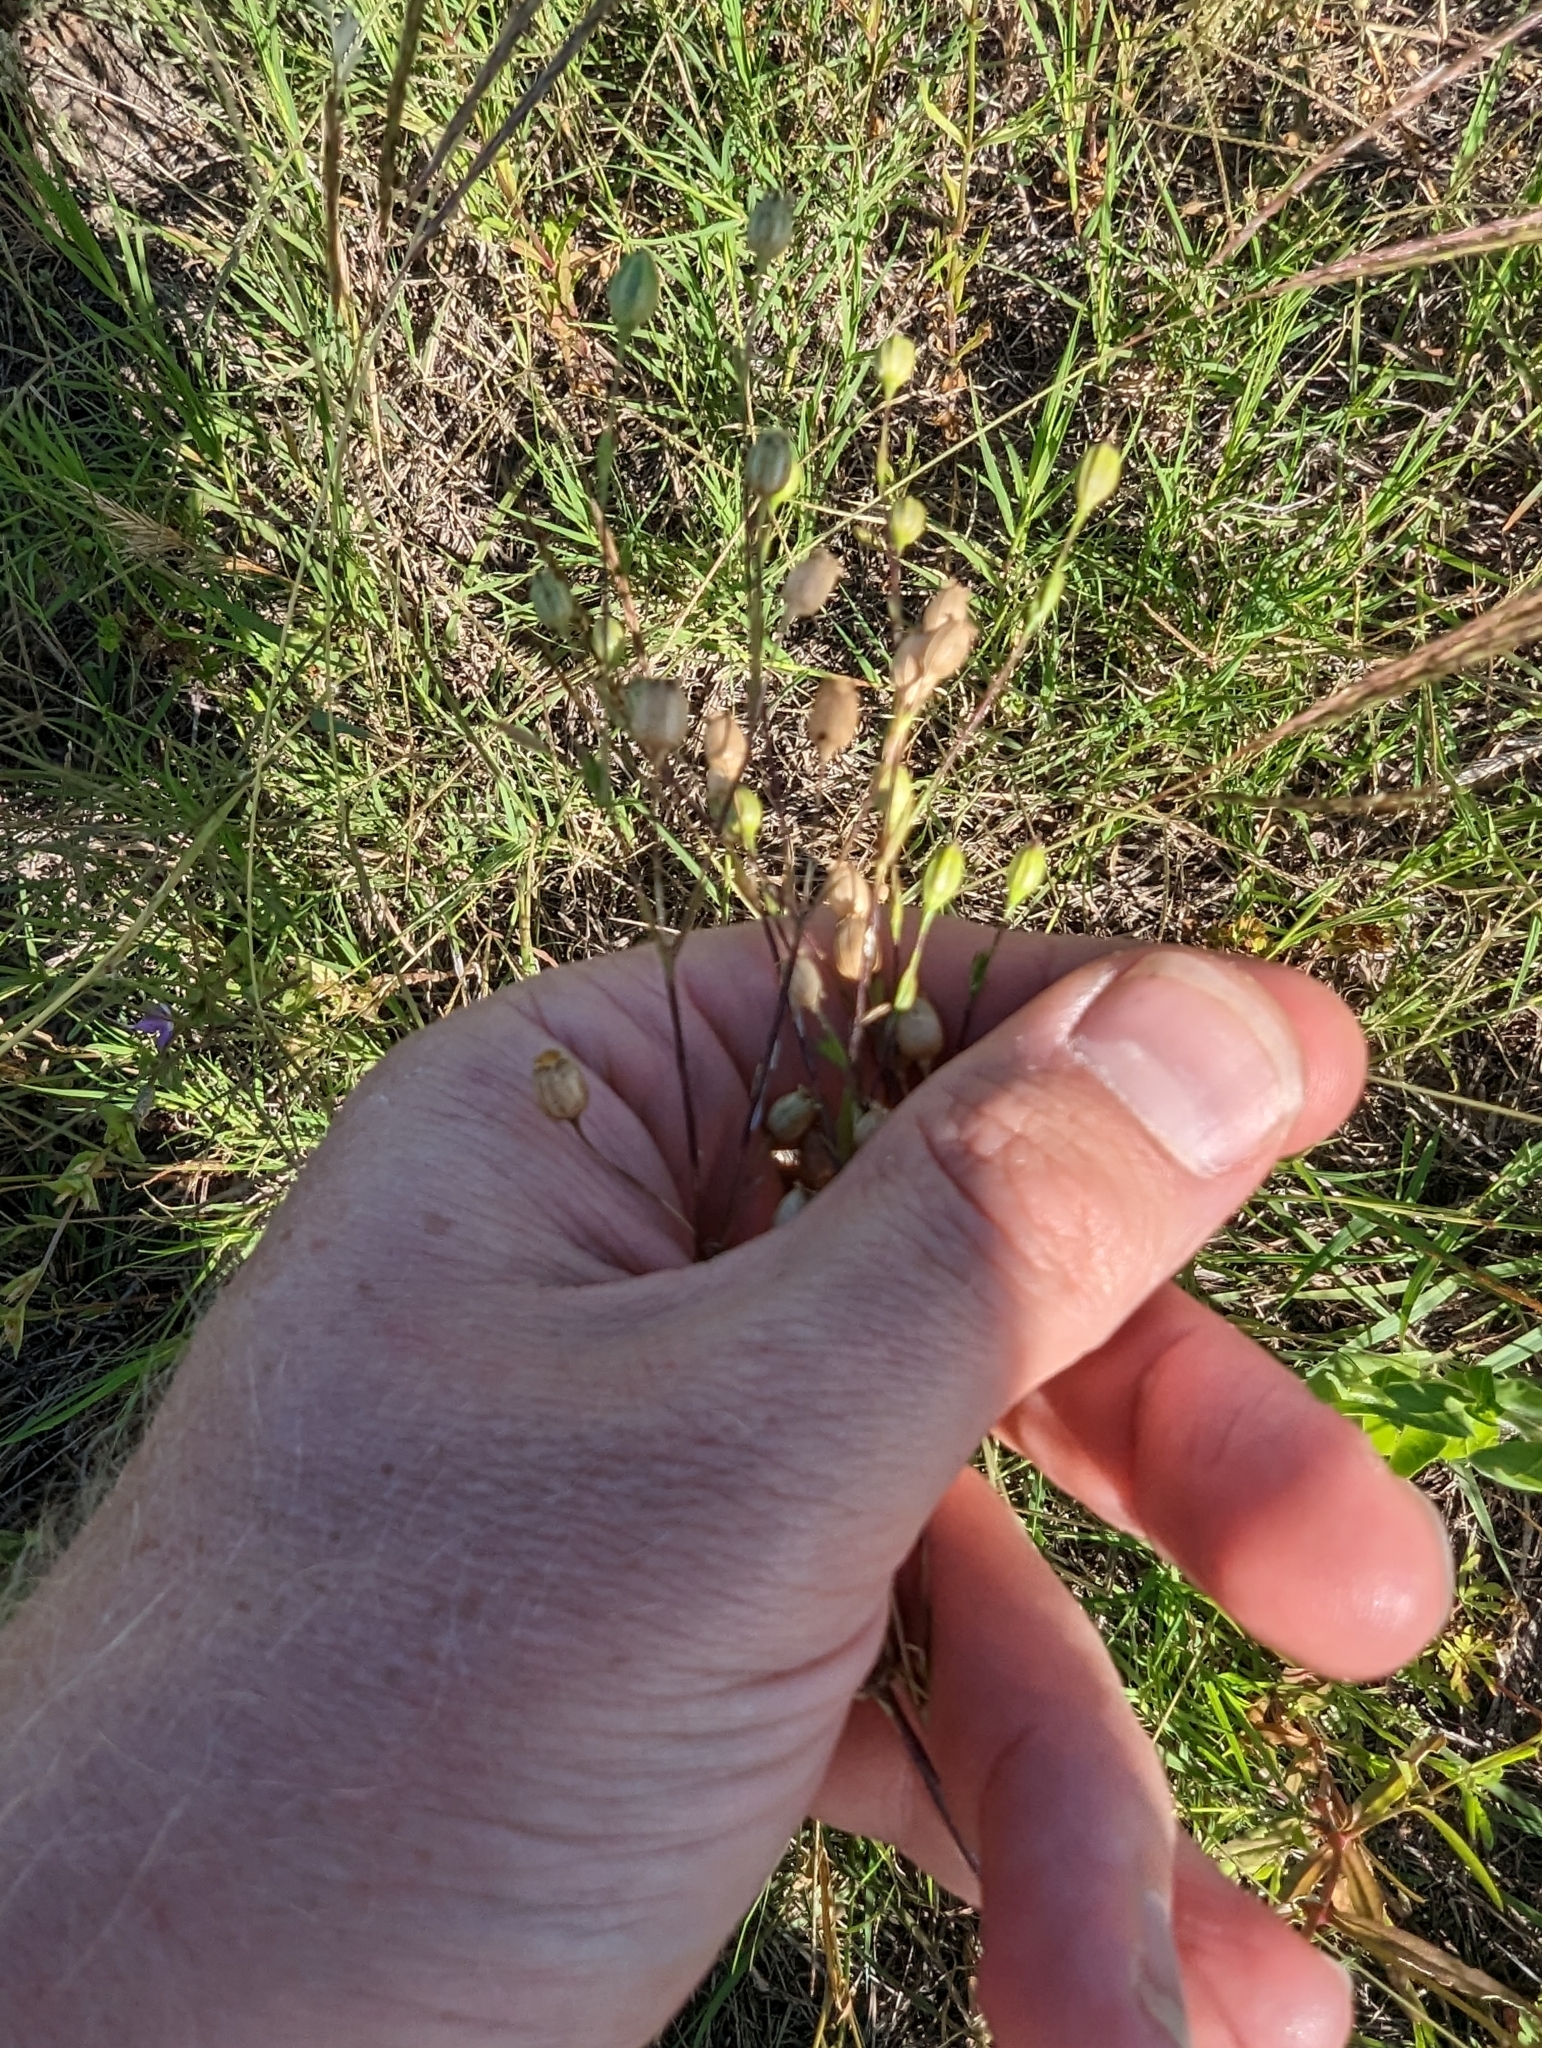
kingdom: Plantae
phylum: Tracheophyta
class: Magnoliopsida
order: Caryophyllales
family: Caryophyllaceae
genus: Silene
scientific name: Silene antirrhina
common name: Sleepy catchfly
